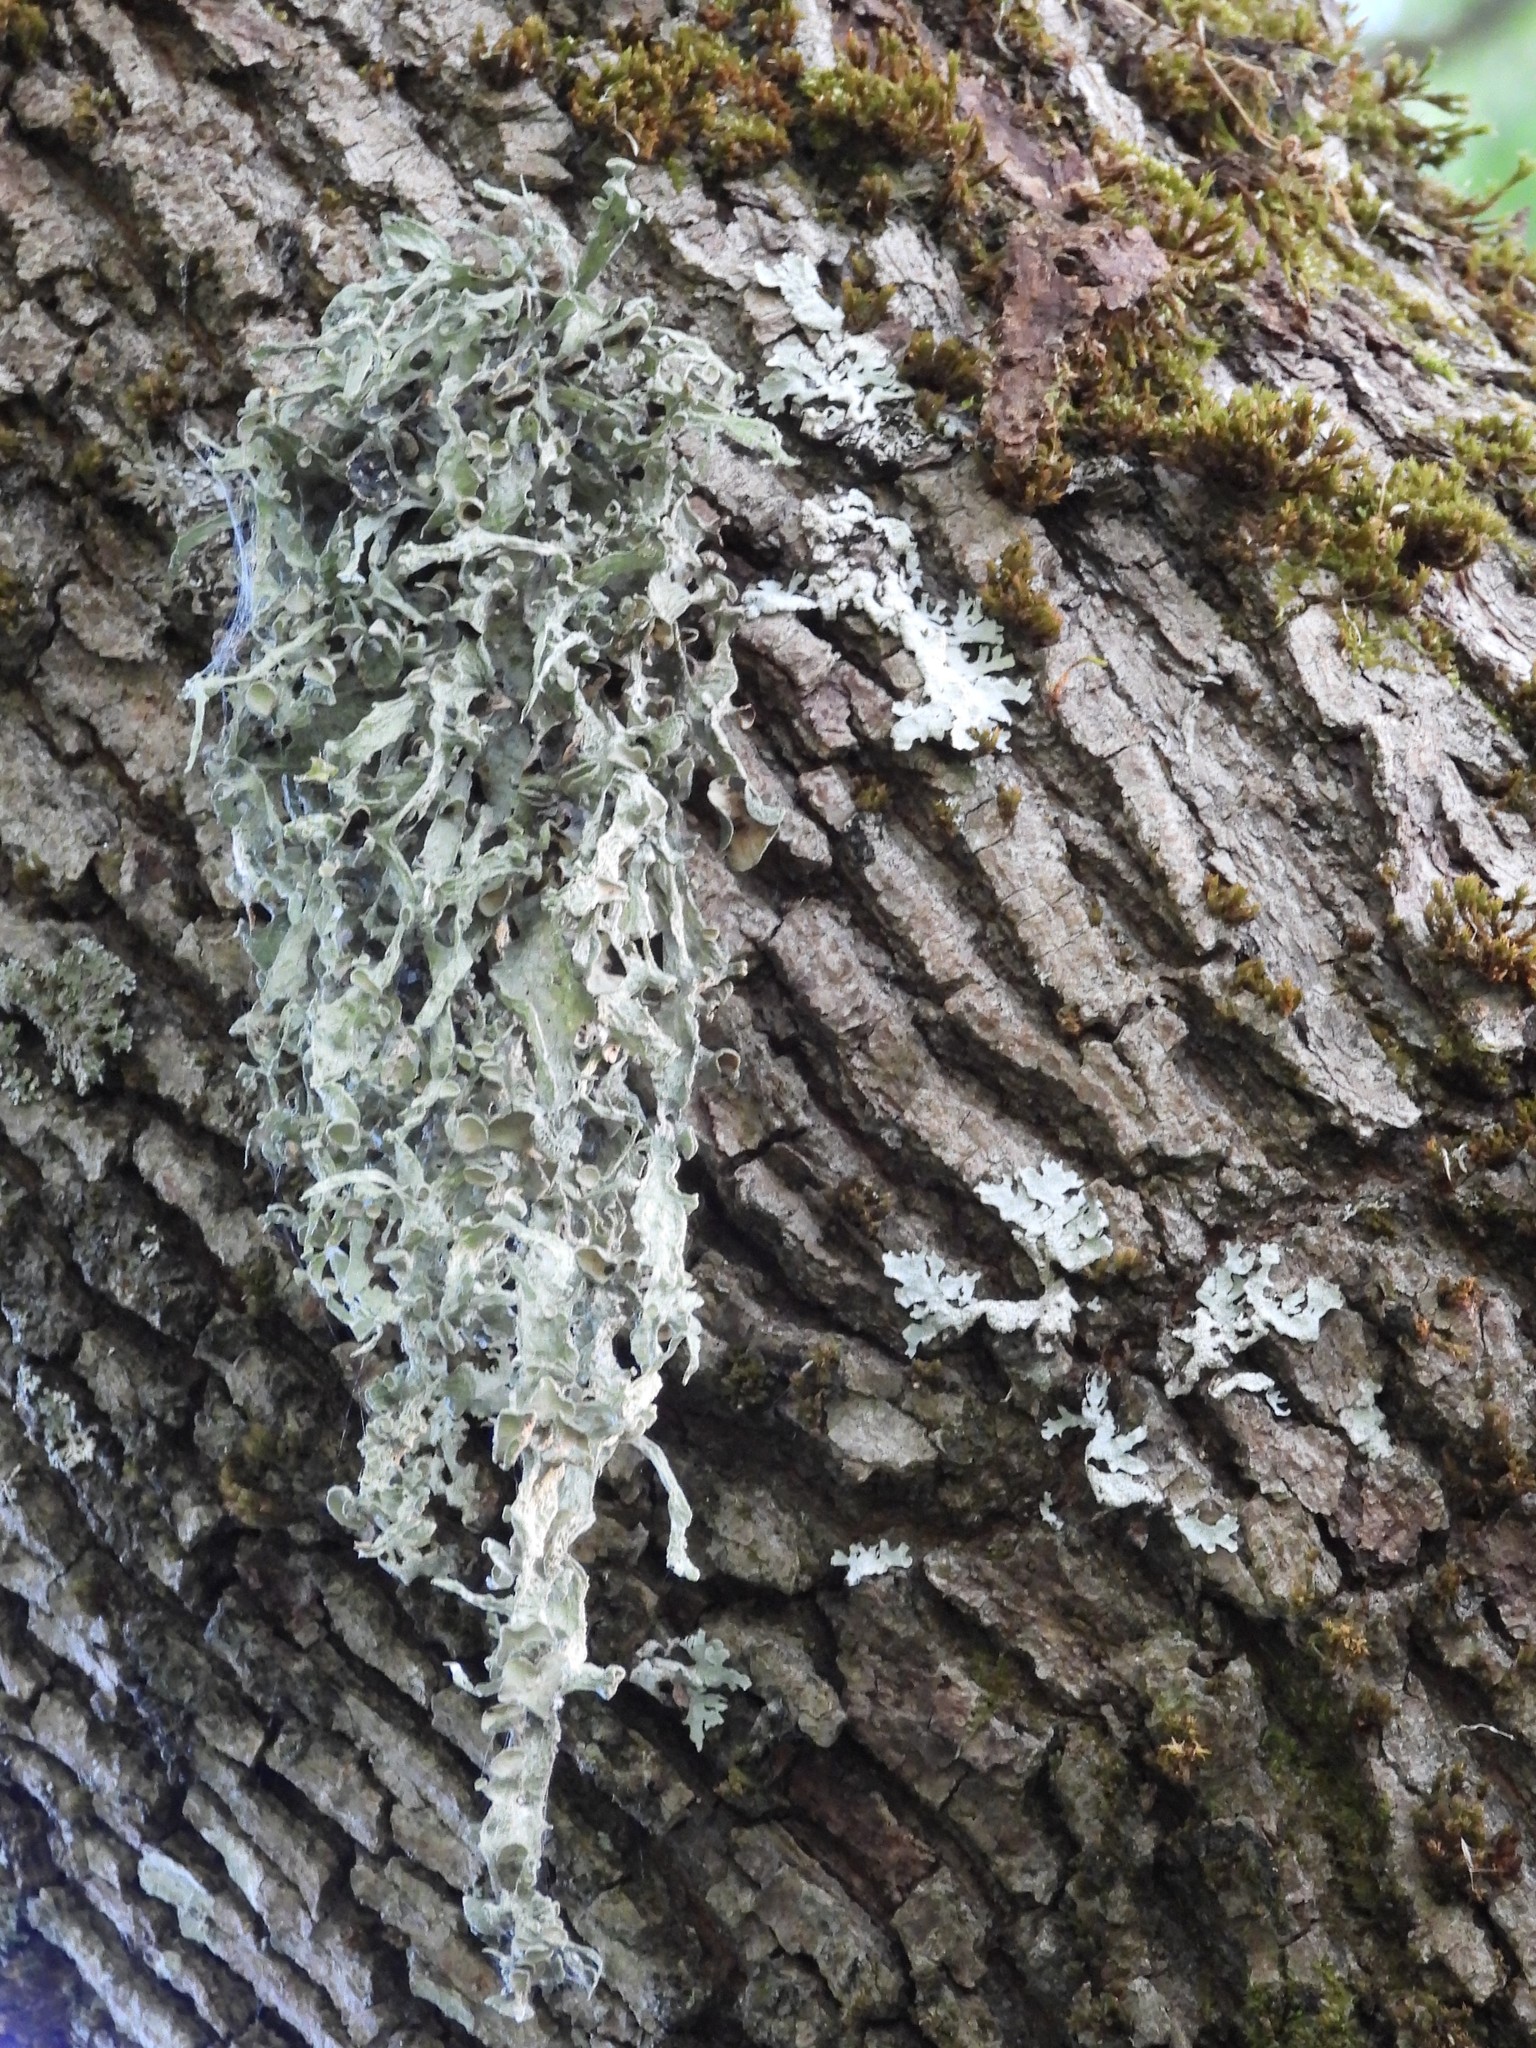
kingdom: Fungi
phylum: Ascomycota
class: Lecanoromycetes
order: Lecanorales
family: Ramalinaceae
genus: Ramalina
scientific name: Ramalina fraxinea
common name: Cartilage lichen
